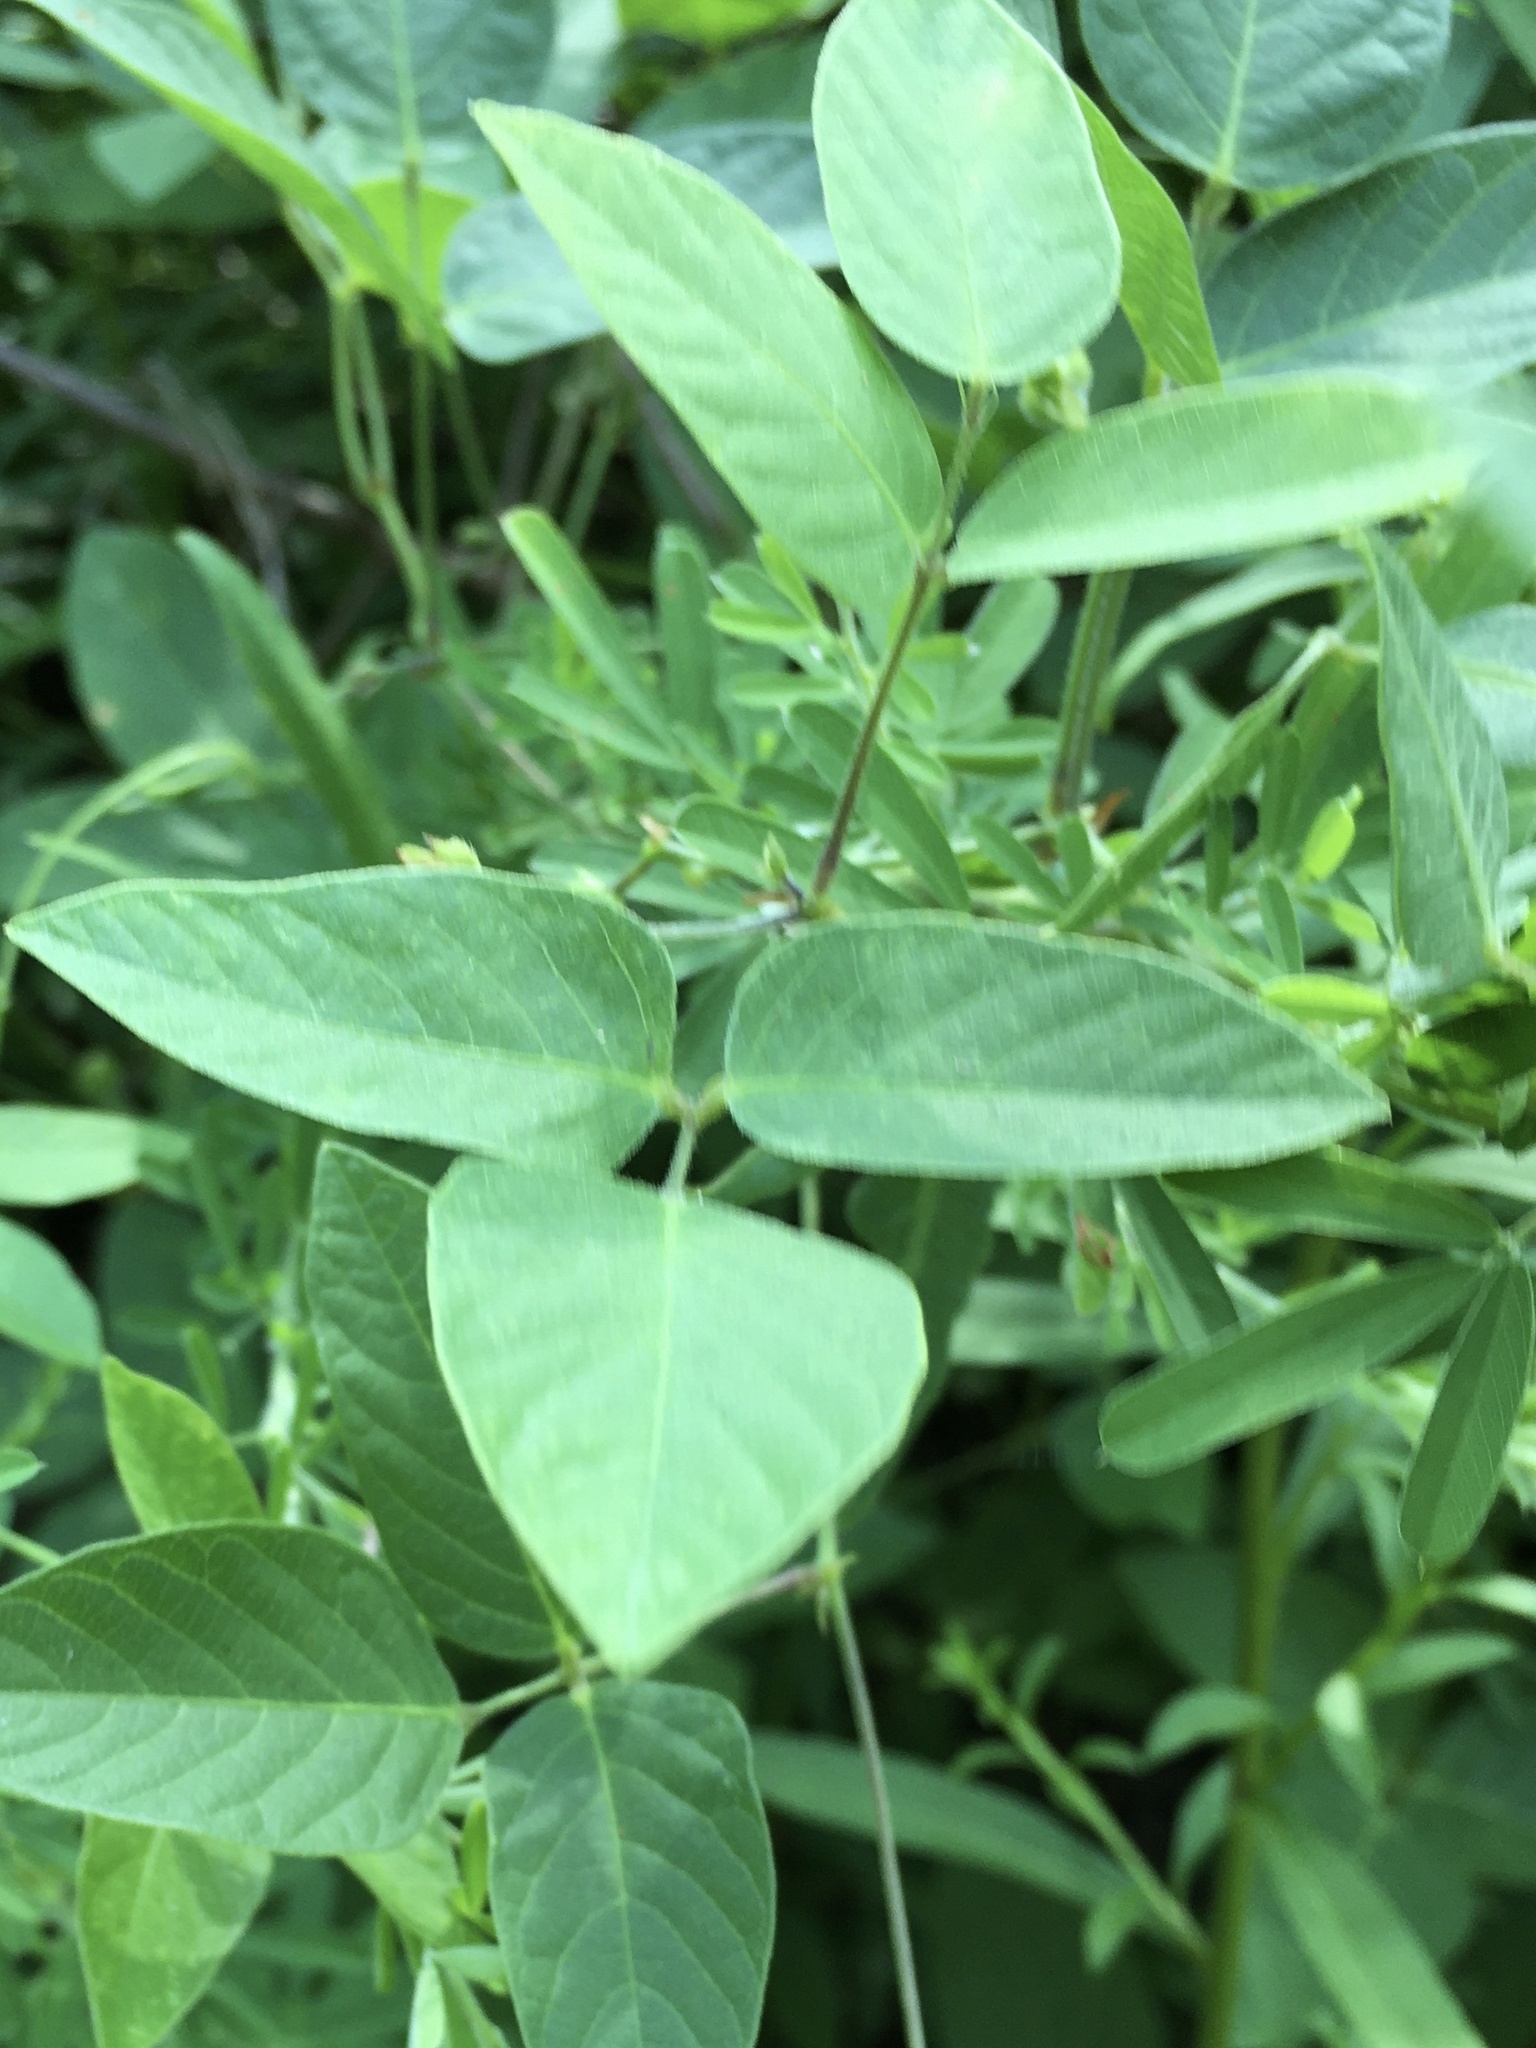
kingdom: Plantae
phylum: Tracheophyta
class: Magnoliopsida
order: Fabales
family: Fabaceae
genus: Centrosema
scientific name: Centrosema virginianum
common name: Butterfly-pea
